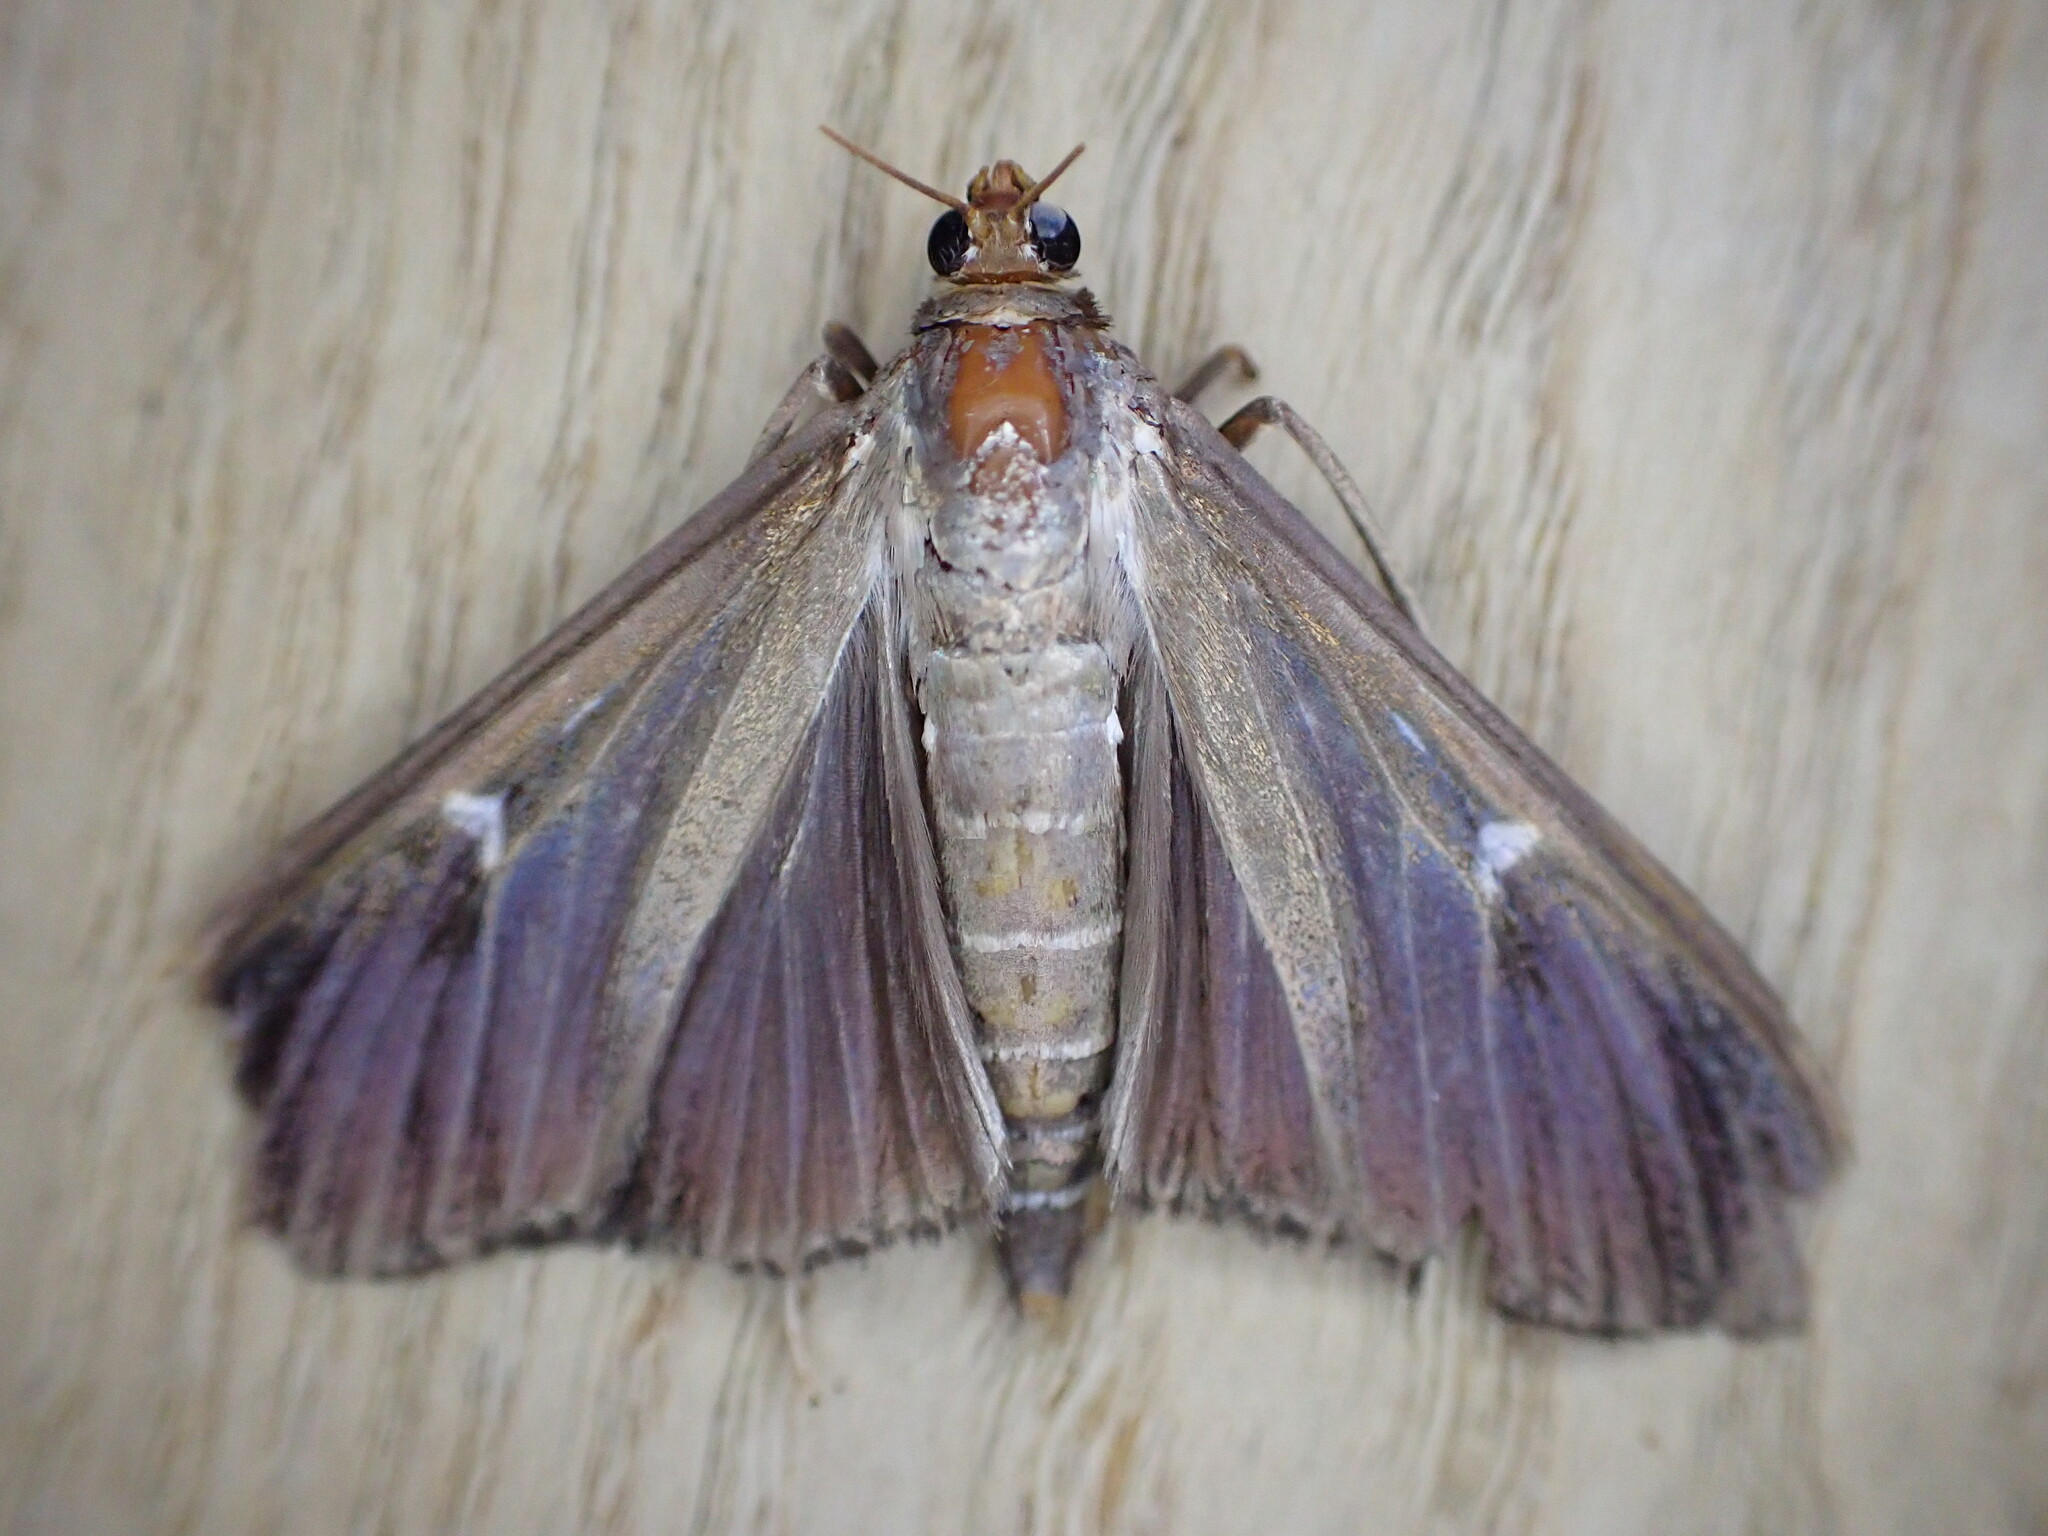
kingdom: Animalia
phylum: Arthropoda
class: Insecta
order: Lepidoptera
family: Crambidae
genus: Cydalima
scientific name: Cydalima perspectalis
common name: Box tree moth
